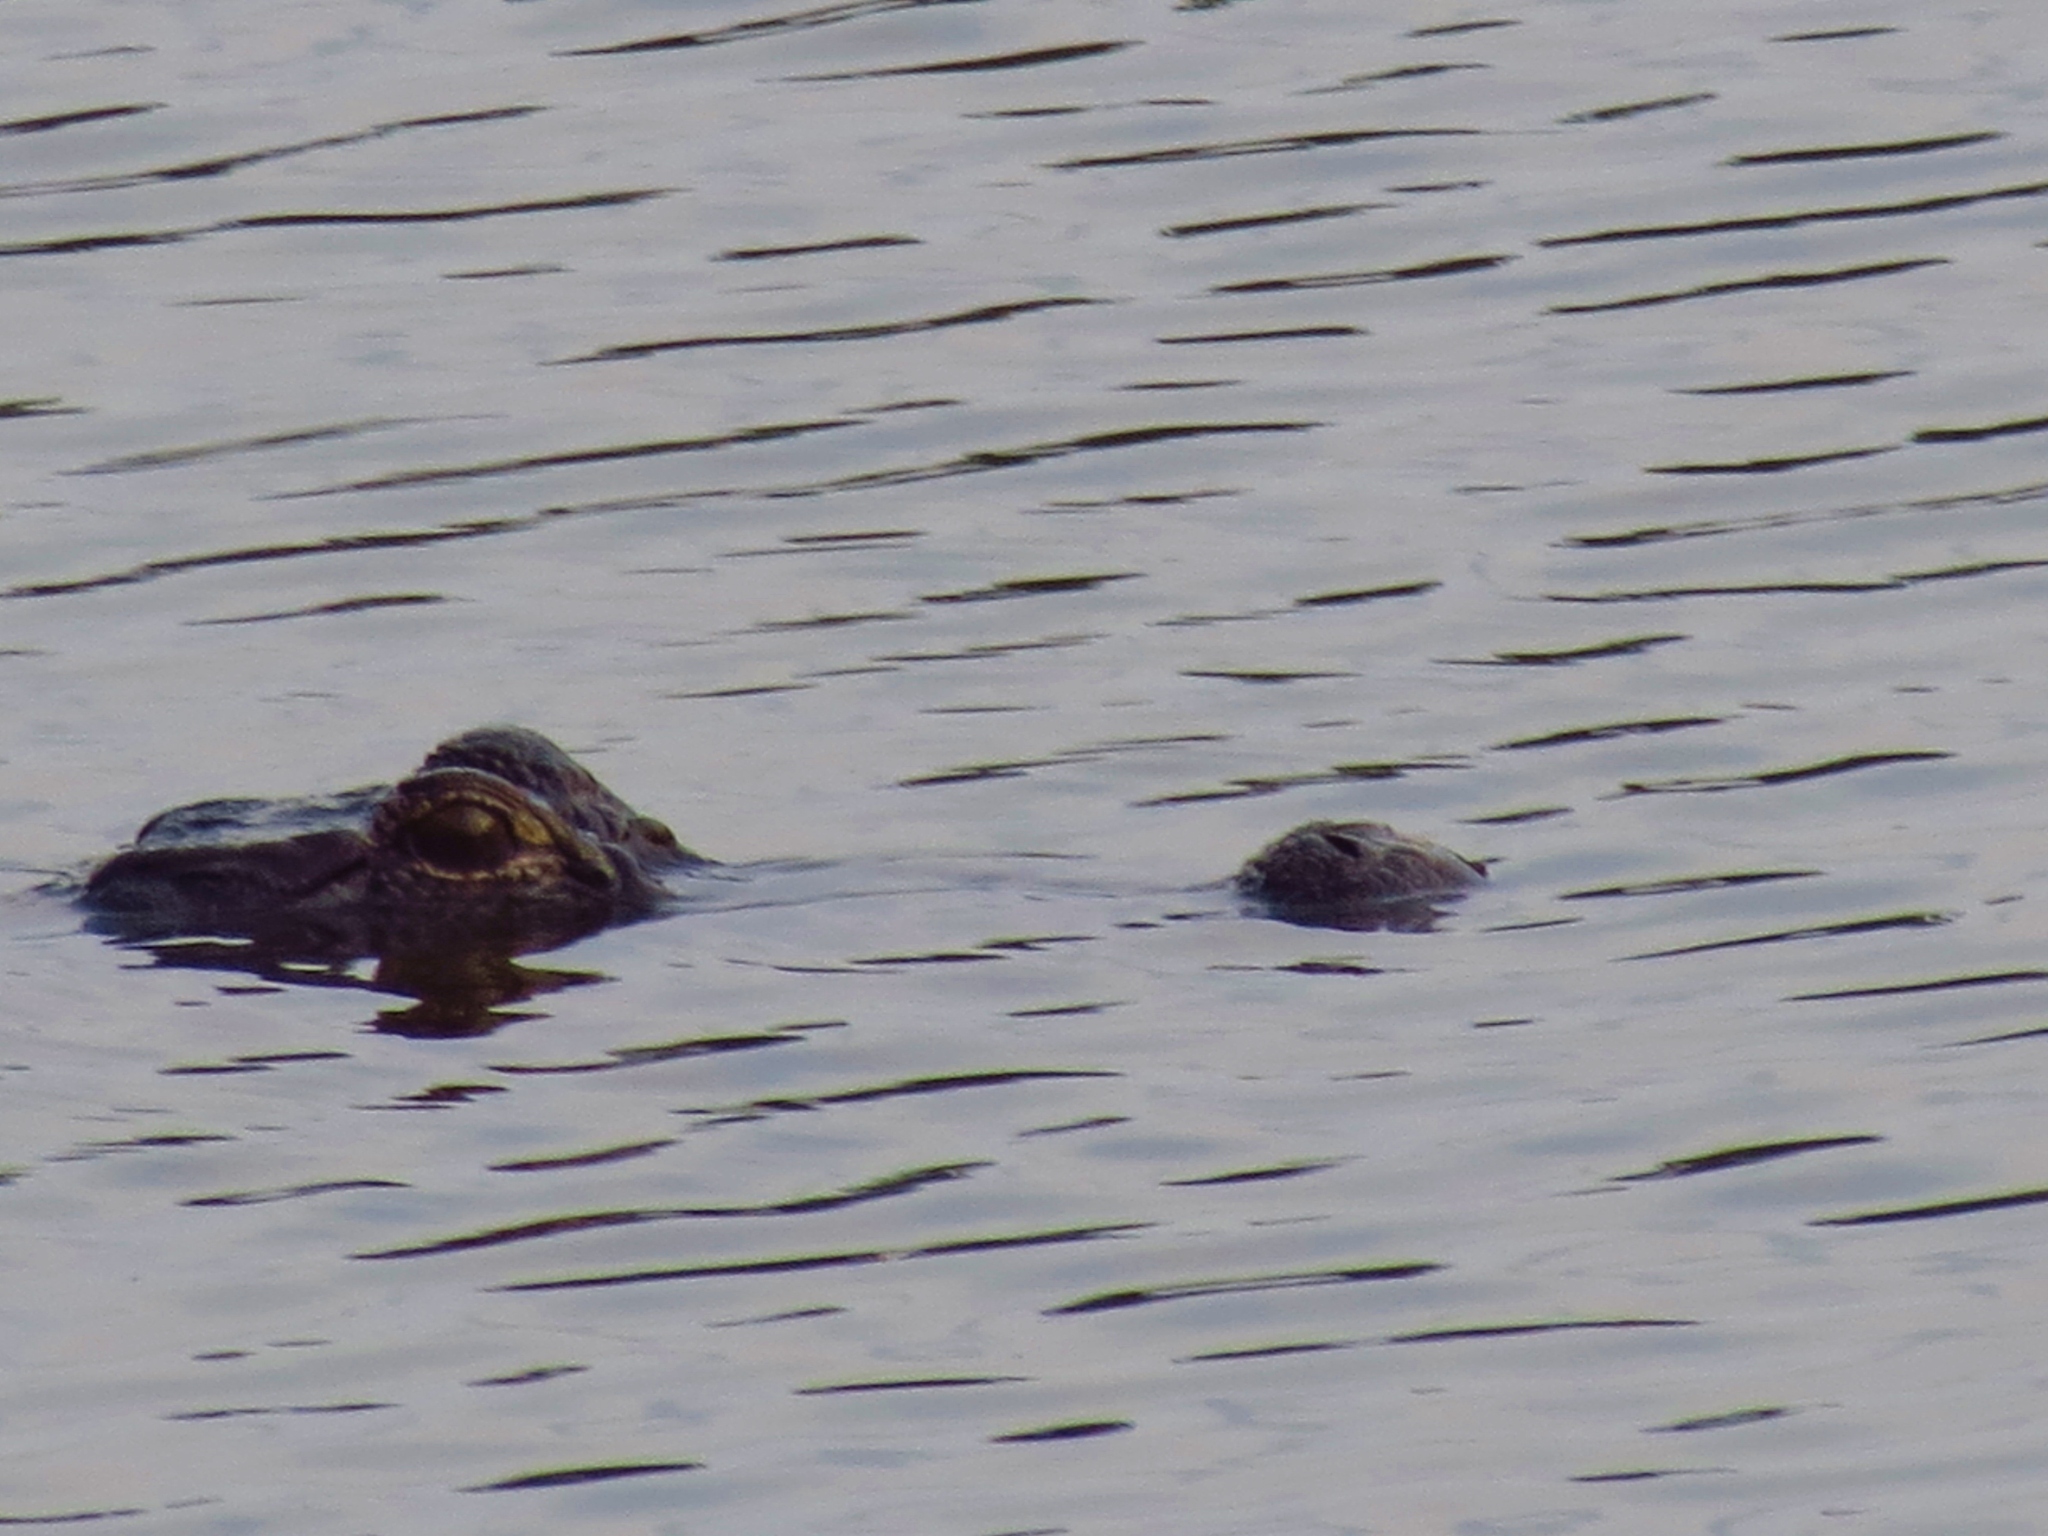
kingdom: Animalia
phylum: Chordata
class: Crocodylia
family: Alligatoridae
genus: Alligator
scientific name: Alligator mississippiensis
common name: American alligator
